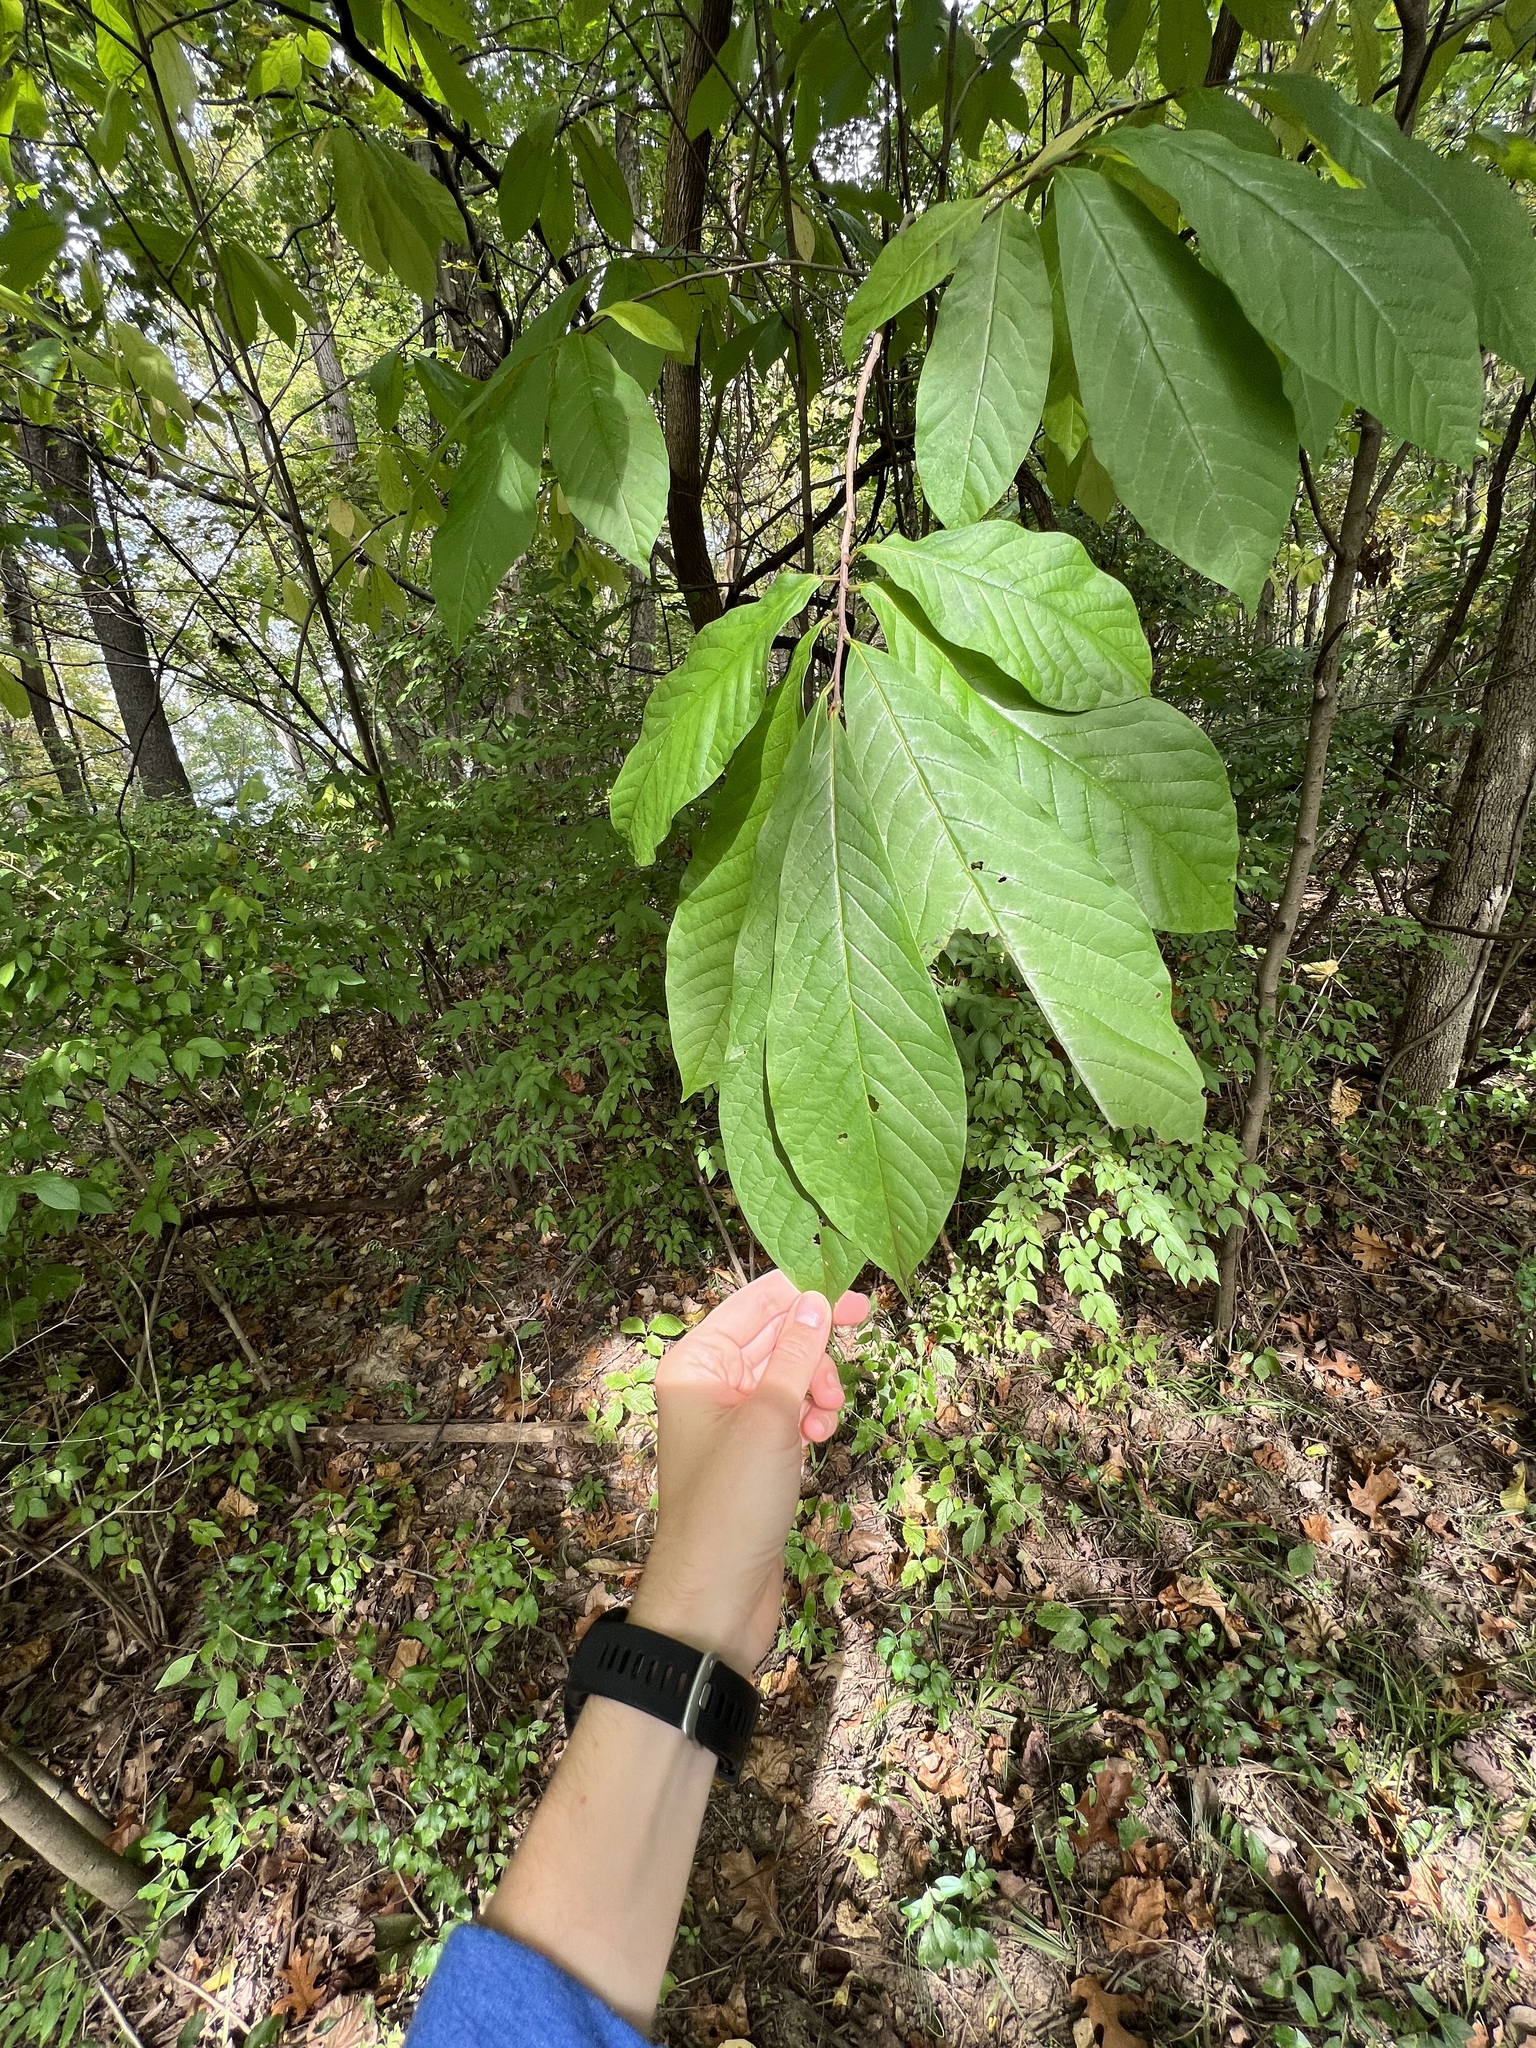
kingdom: Plantae
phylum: Tracheophyta
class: Magnoliopsida
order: Magnoliales
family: Annonaceae
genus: Asimina
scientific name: Asimina triloba
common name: Dog-banana
